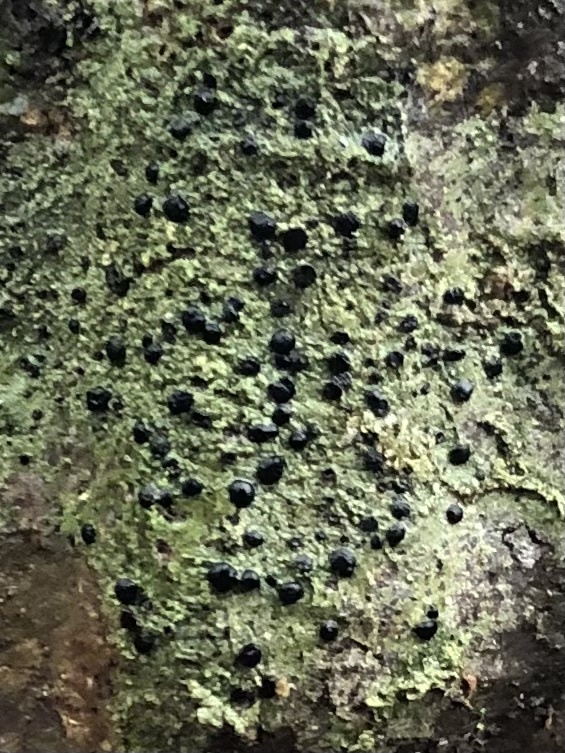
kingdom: Fungi
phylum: Ascomycota
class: Lecanoromycetes
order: Lecanorales
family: Ramalinaceae
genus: Bacidia
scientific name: Bacidia schweinitzii
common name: Surprise lichen
